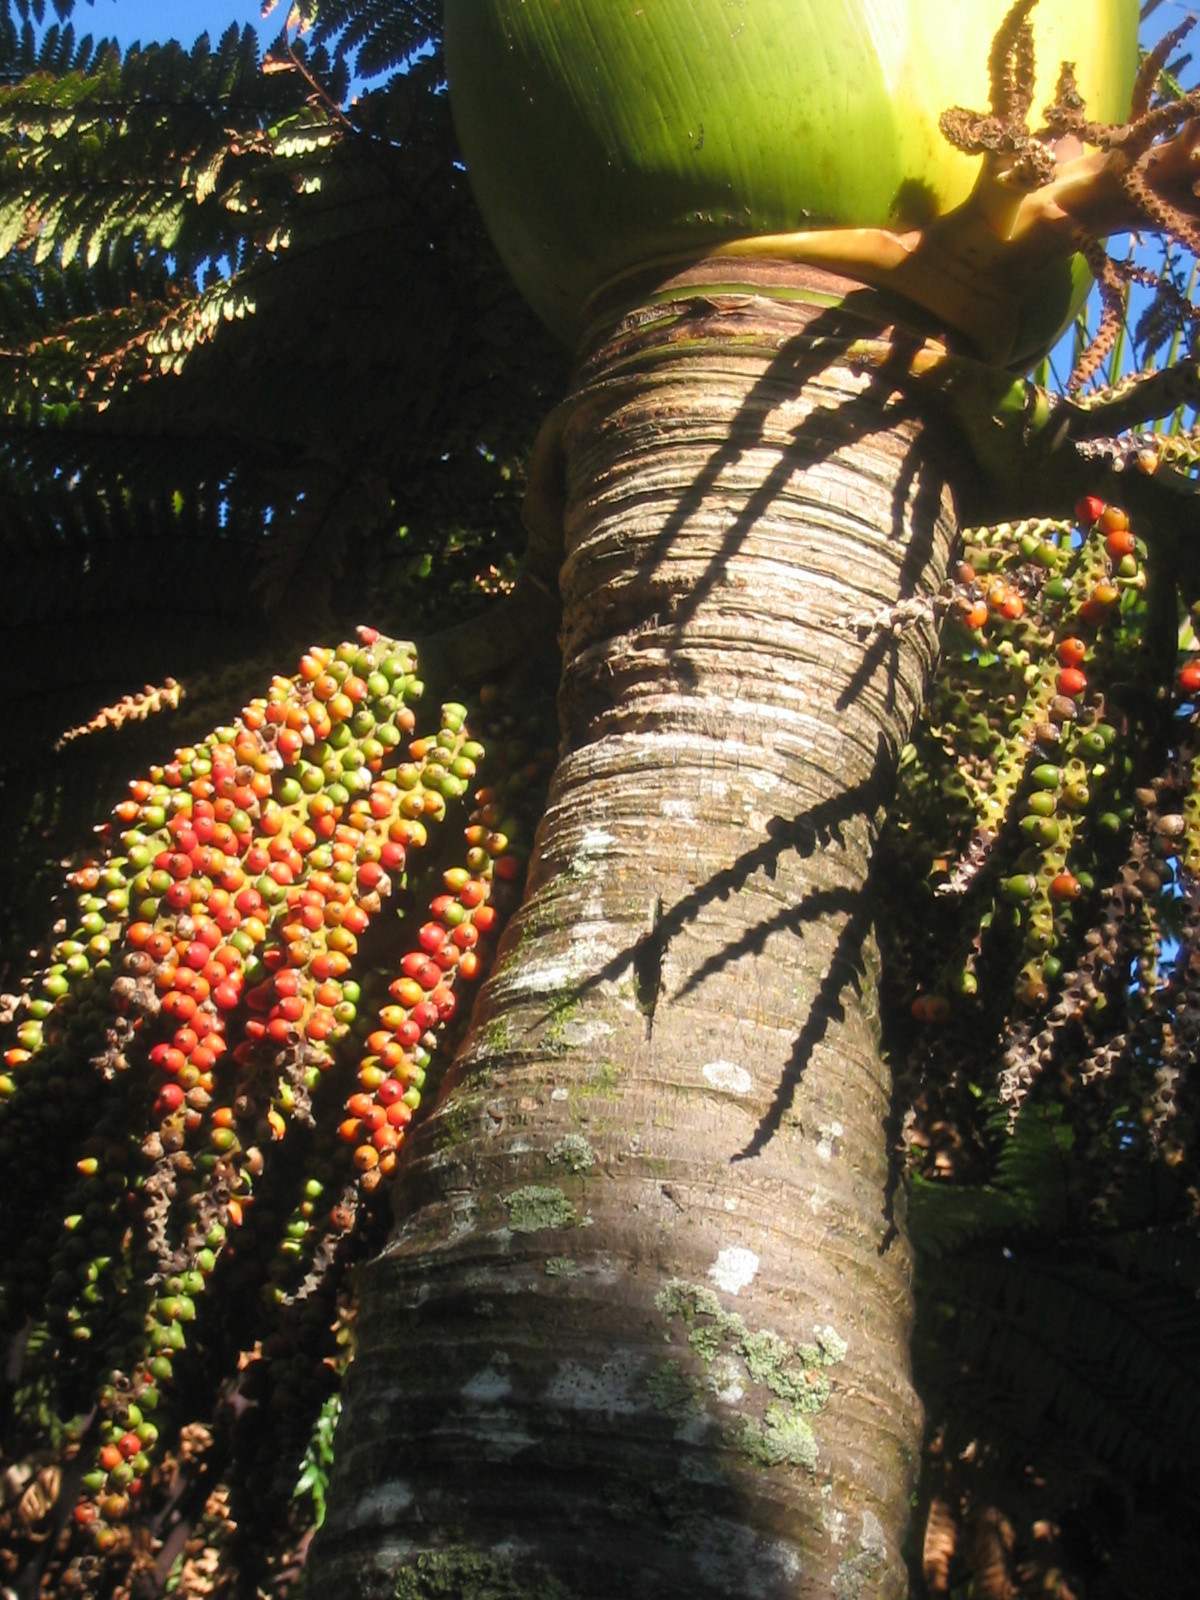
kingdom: Plantae
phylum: Tracheophyta
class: Liliopsida
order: Arecales
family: Arecaceae
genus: Rhopalostylis
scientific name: Rhopalostylis sapida
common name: Feather-duster palm
